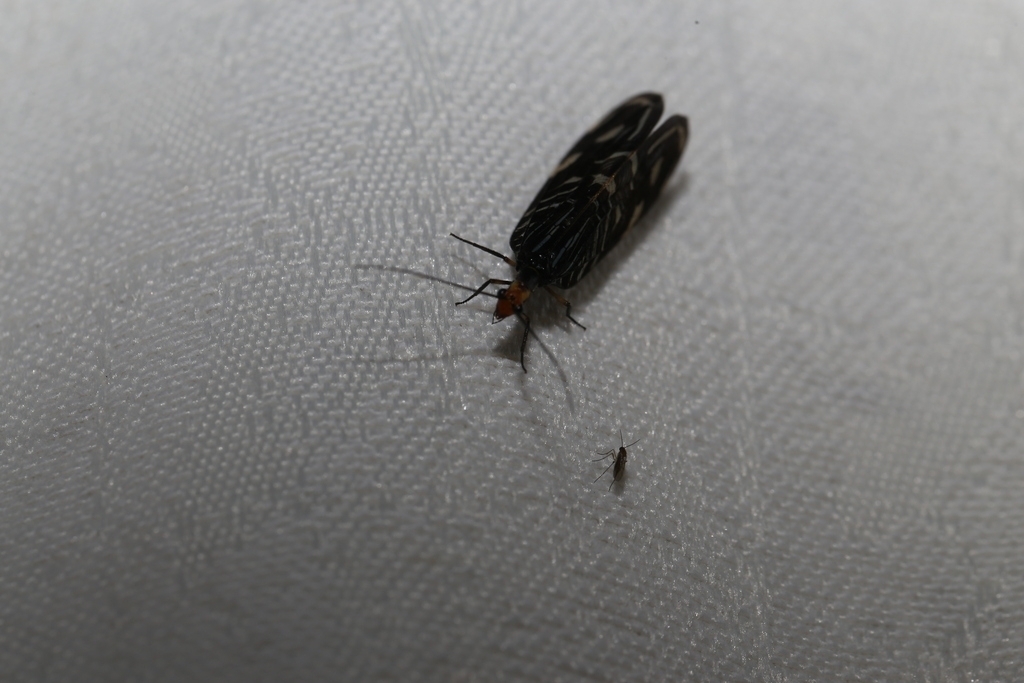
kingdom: Animalia
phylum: Arthropoda
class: Insecta
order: Neuroptera
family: Osmylidae
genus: Porismus
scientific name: Porismus strigatus
